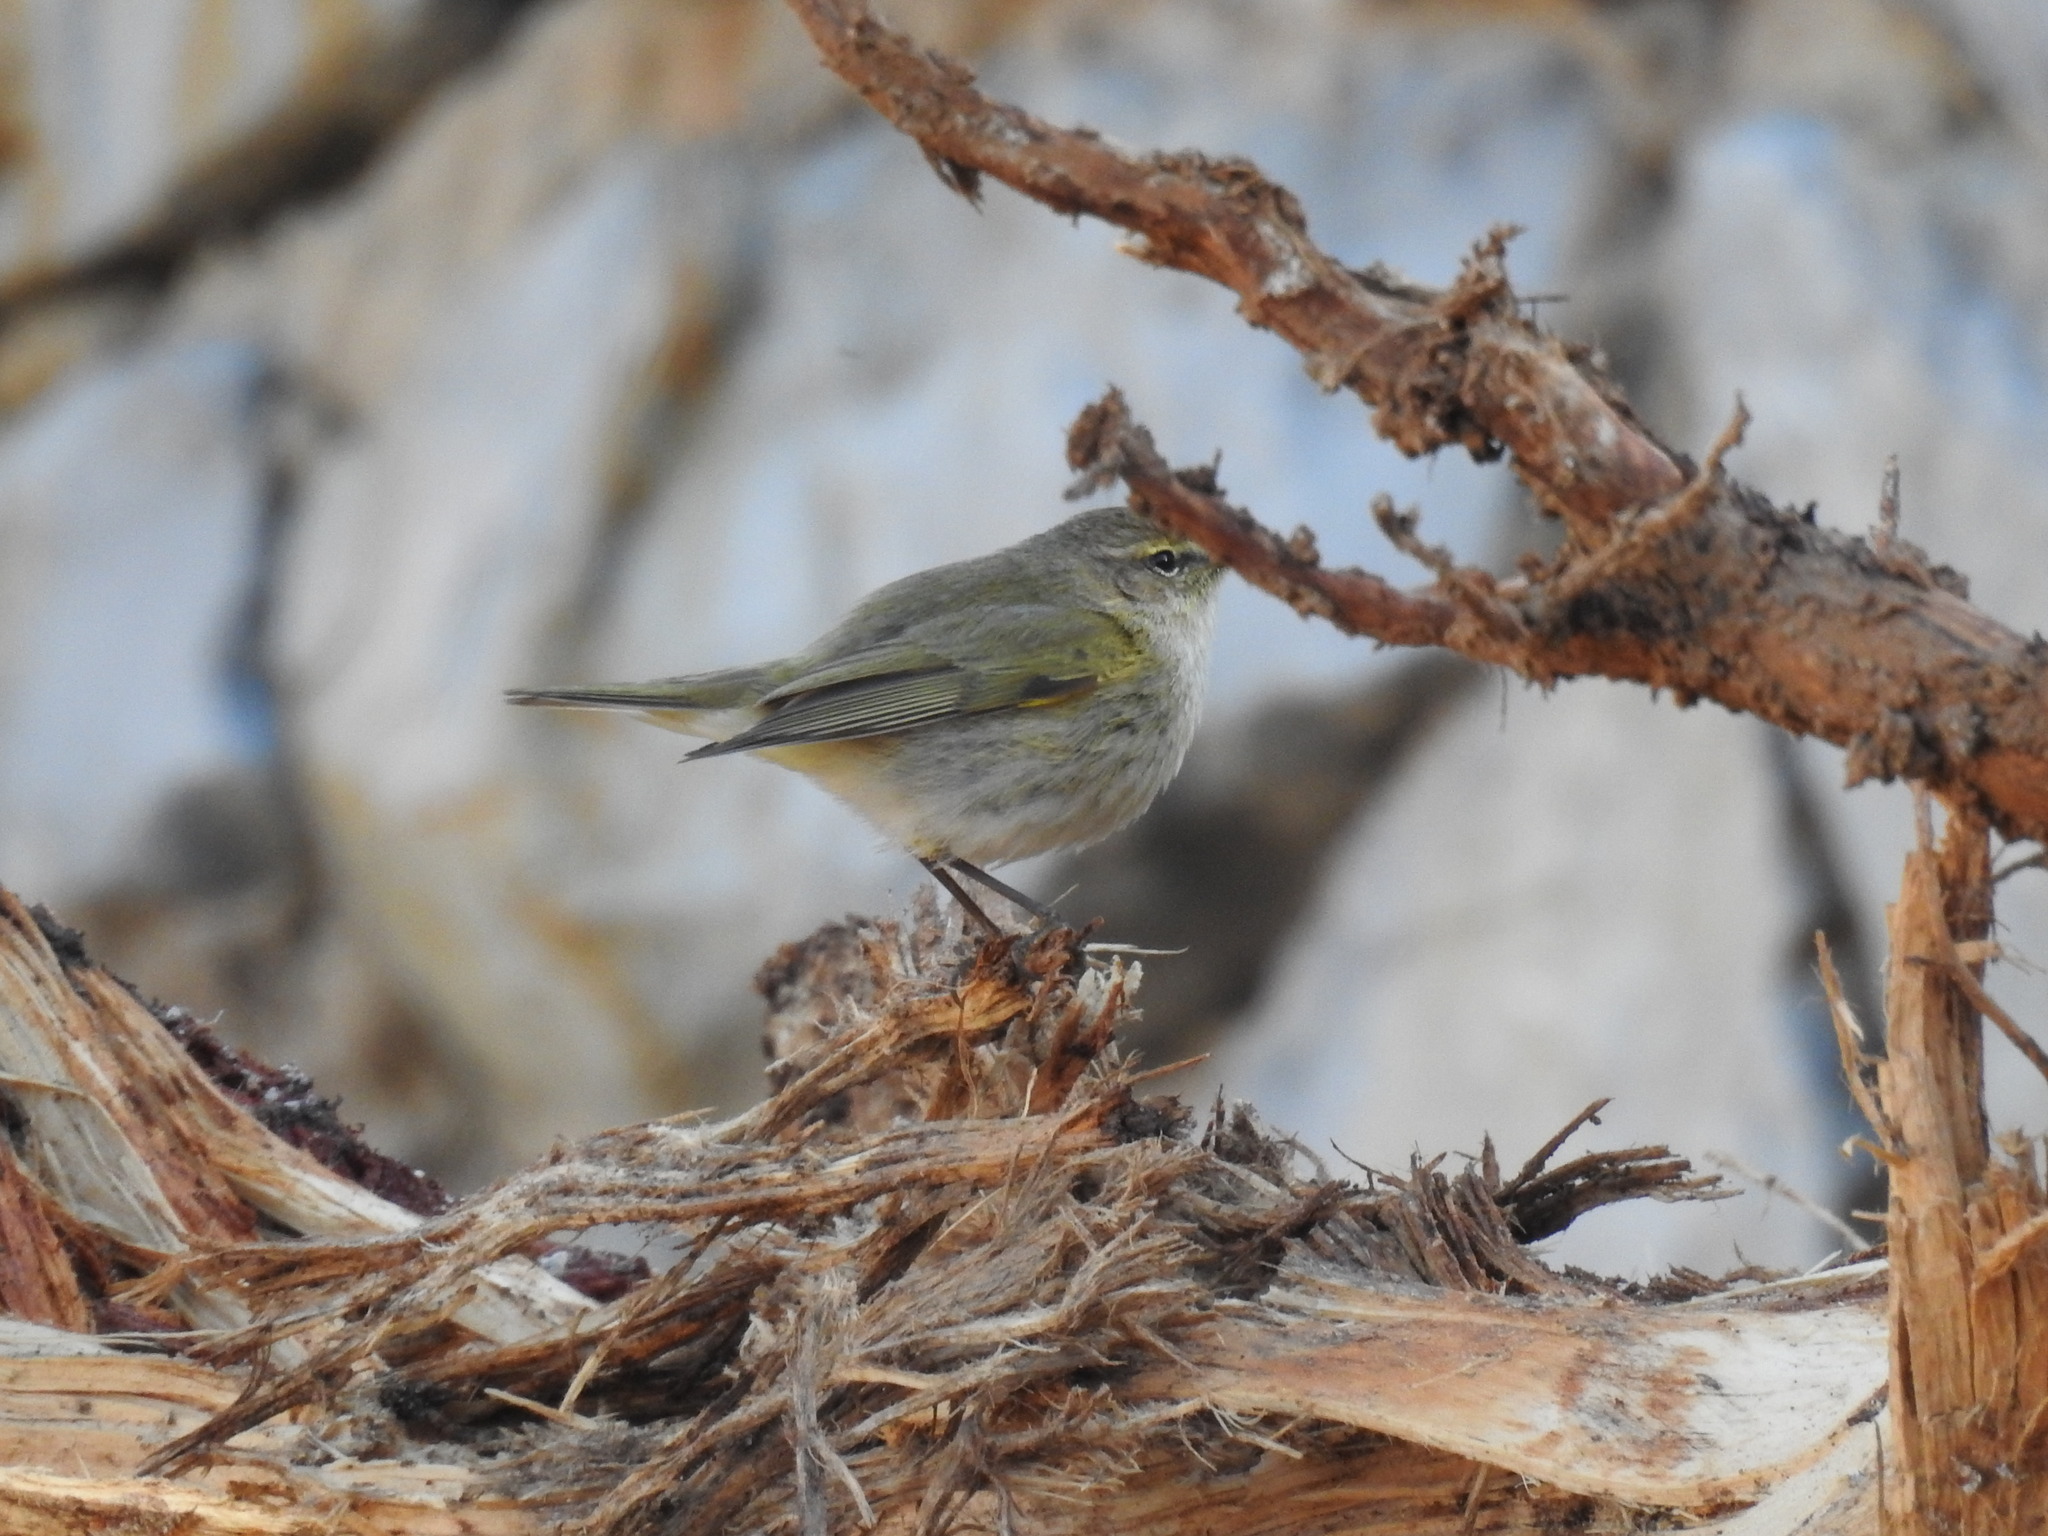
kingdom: Animalia
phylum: Chordata
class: Aves
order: Passeriformes
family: Phylloscopidae
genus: Phylloscopus
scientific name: Phylloscopus collybita
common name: Common chiffchaff
